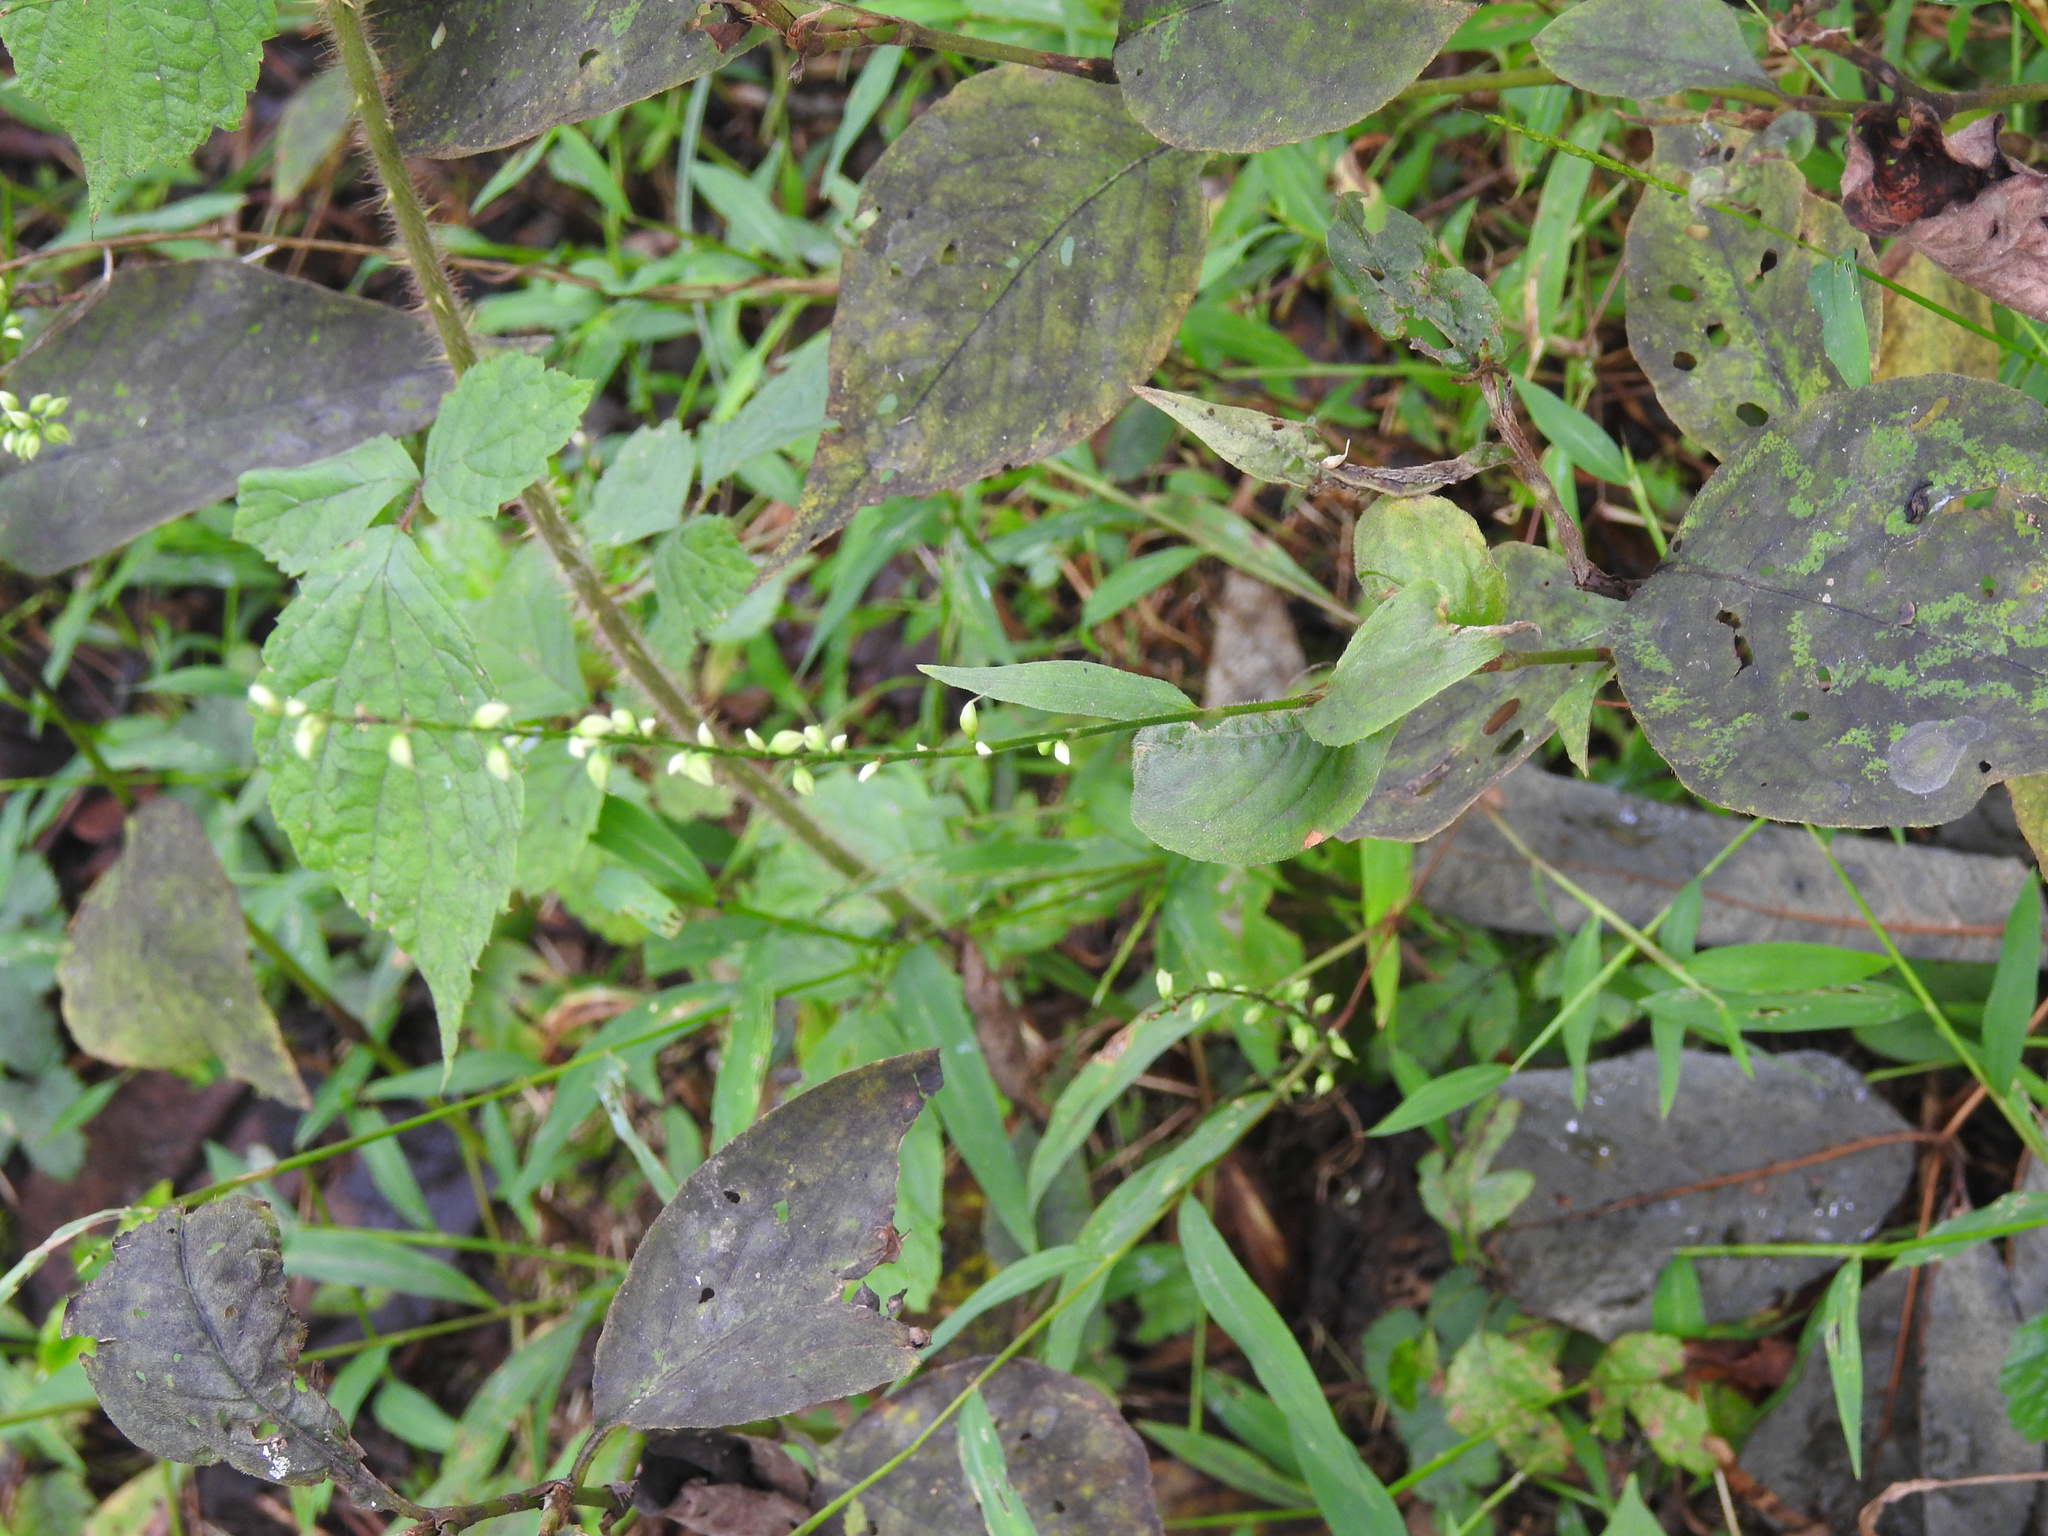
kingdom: Plantae
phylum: Tracheophyta
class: Magnoliopsida
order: Caryophyllales
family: Polygonaceae
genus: Persicaria
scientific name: Persicaria virginiana
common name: Jumpseed
